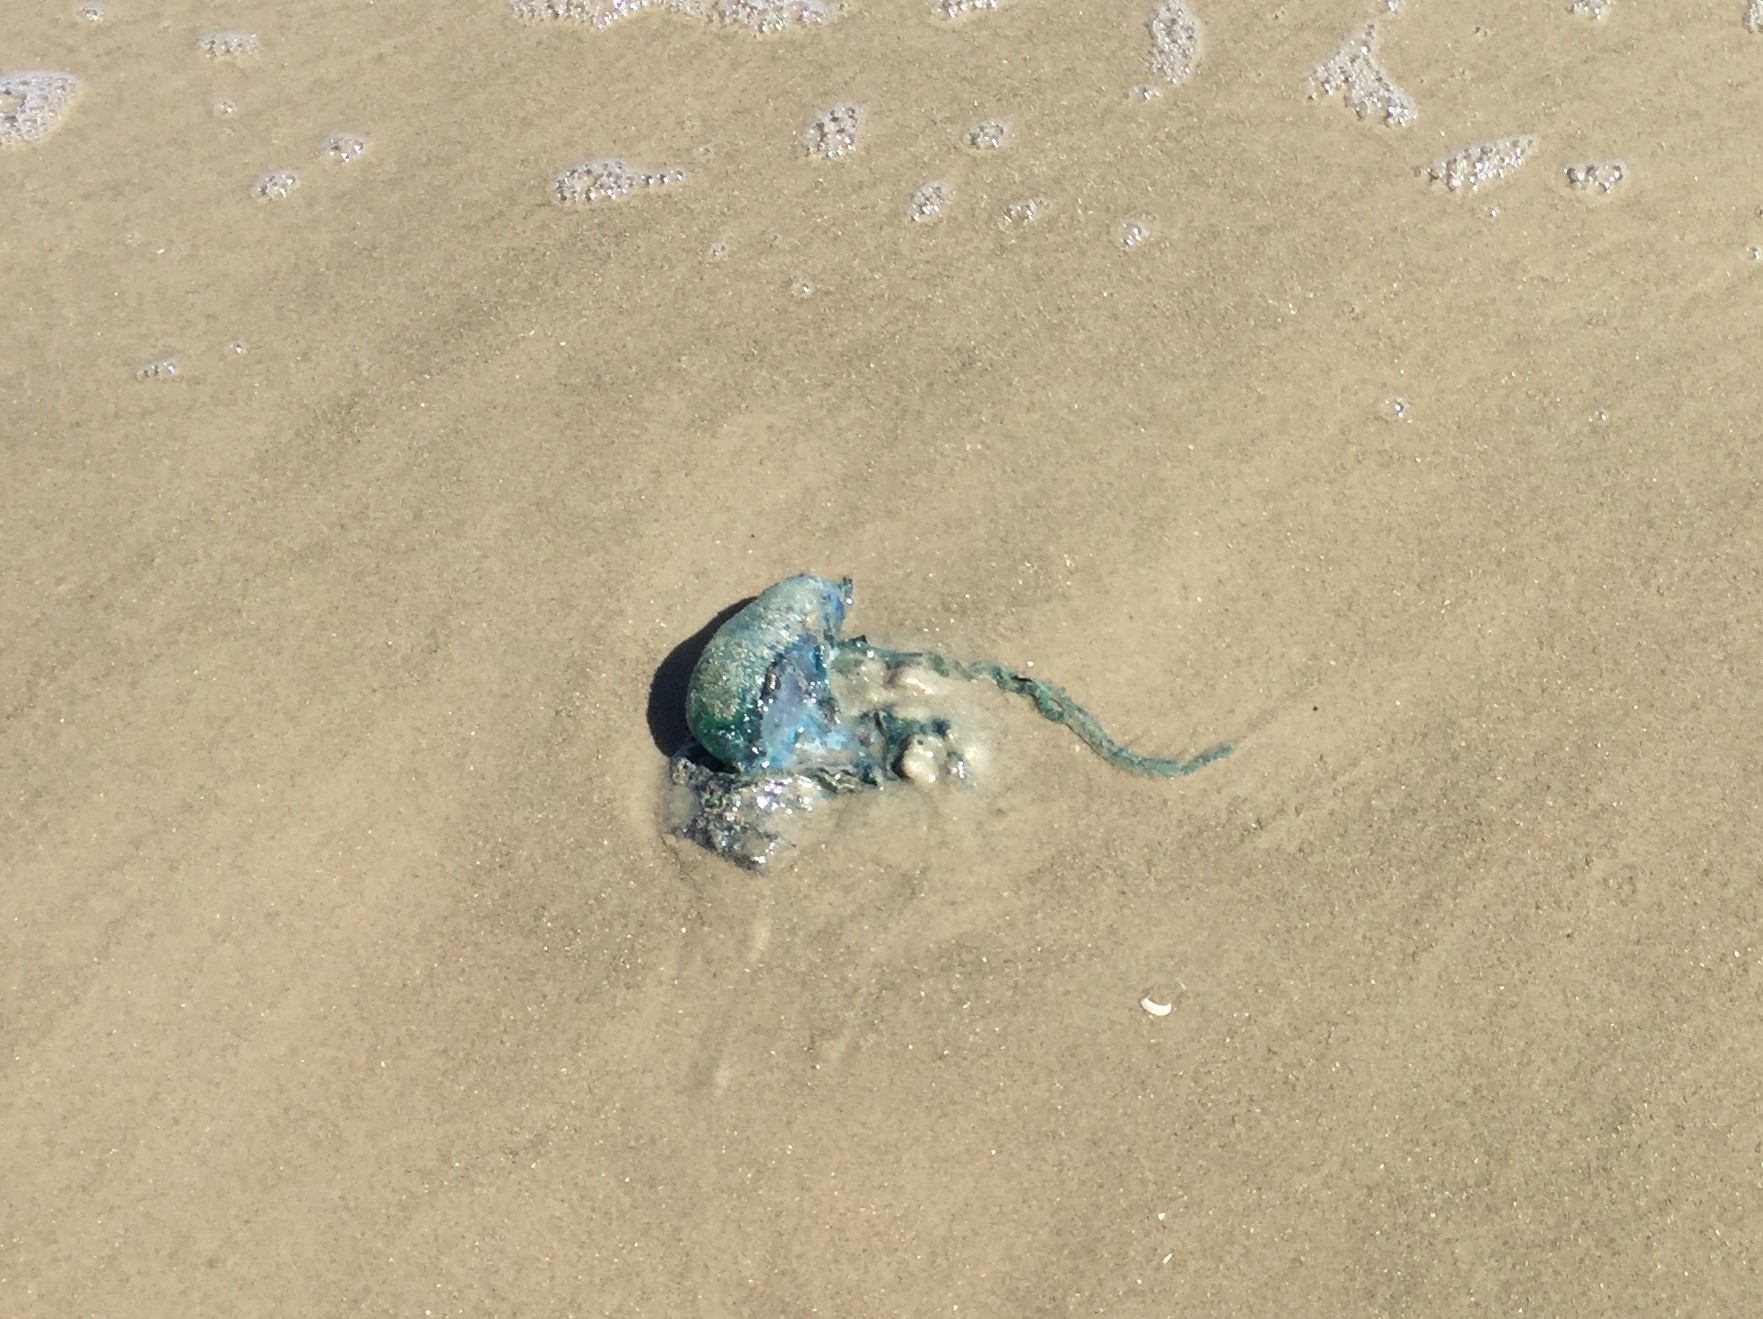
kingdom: Animalia
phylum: Cnidaria
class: Hydrozoa
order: Siphonophorae
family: Physaliidae
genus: Physalia
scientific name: Physalia physalis
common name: Portuguese man-of-war
